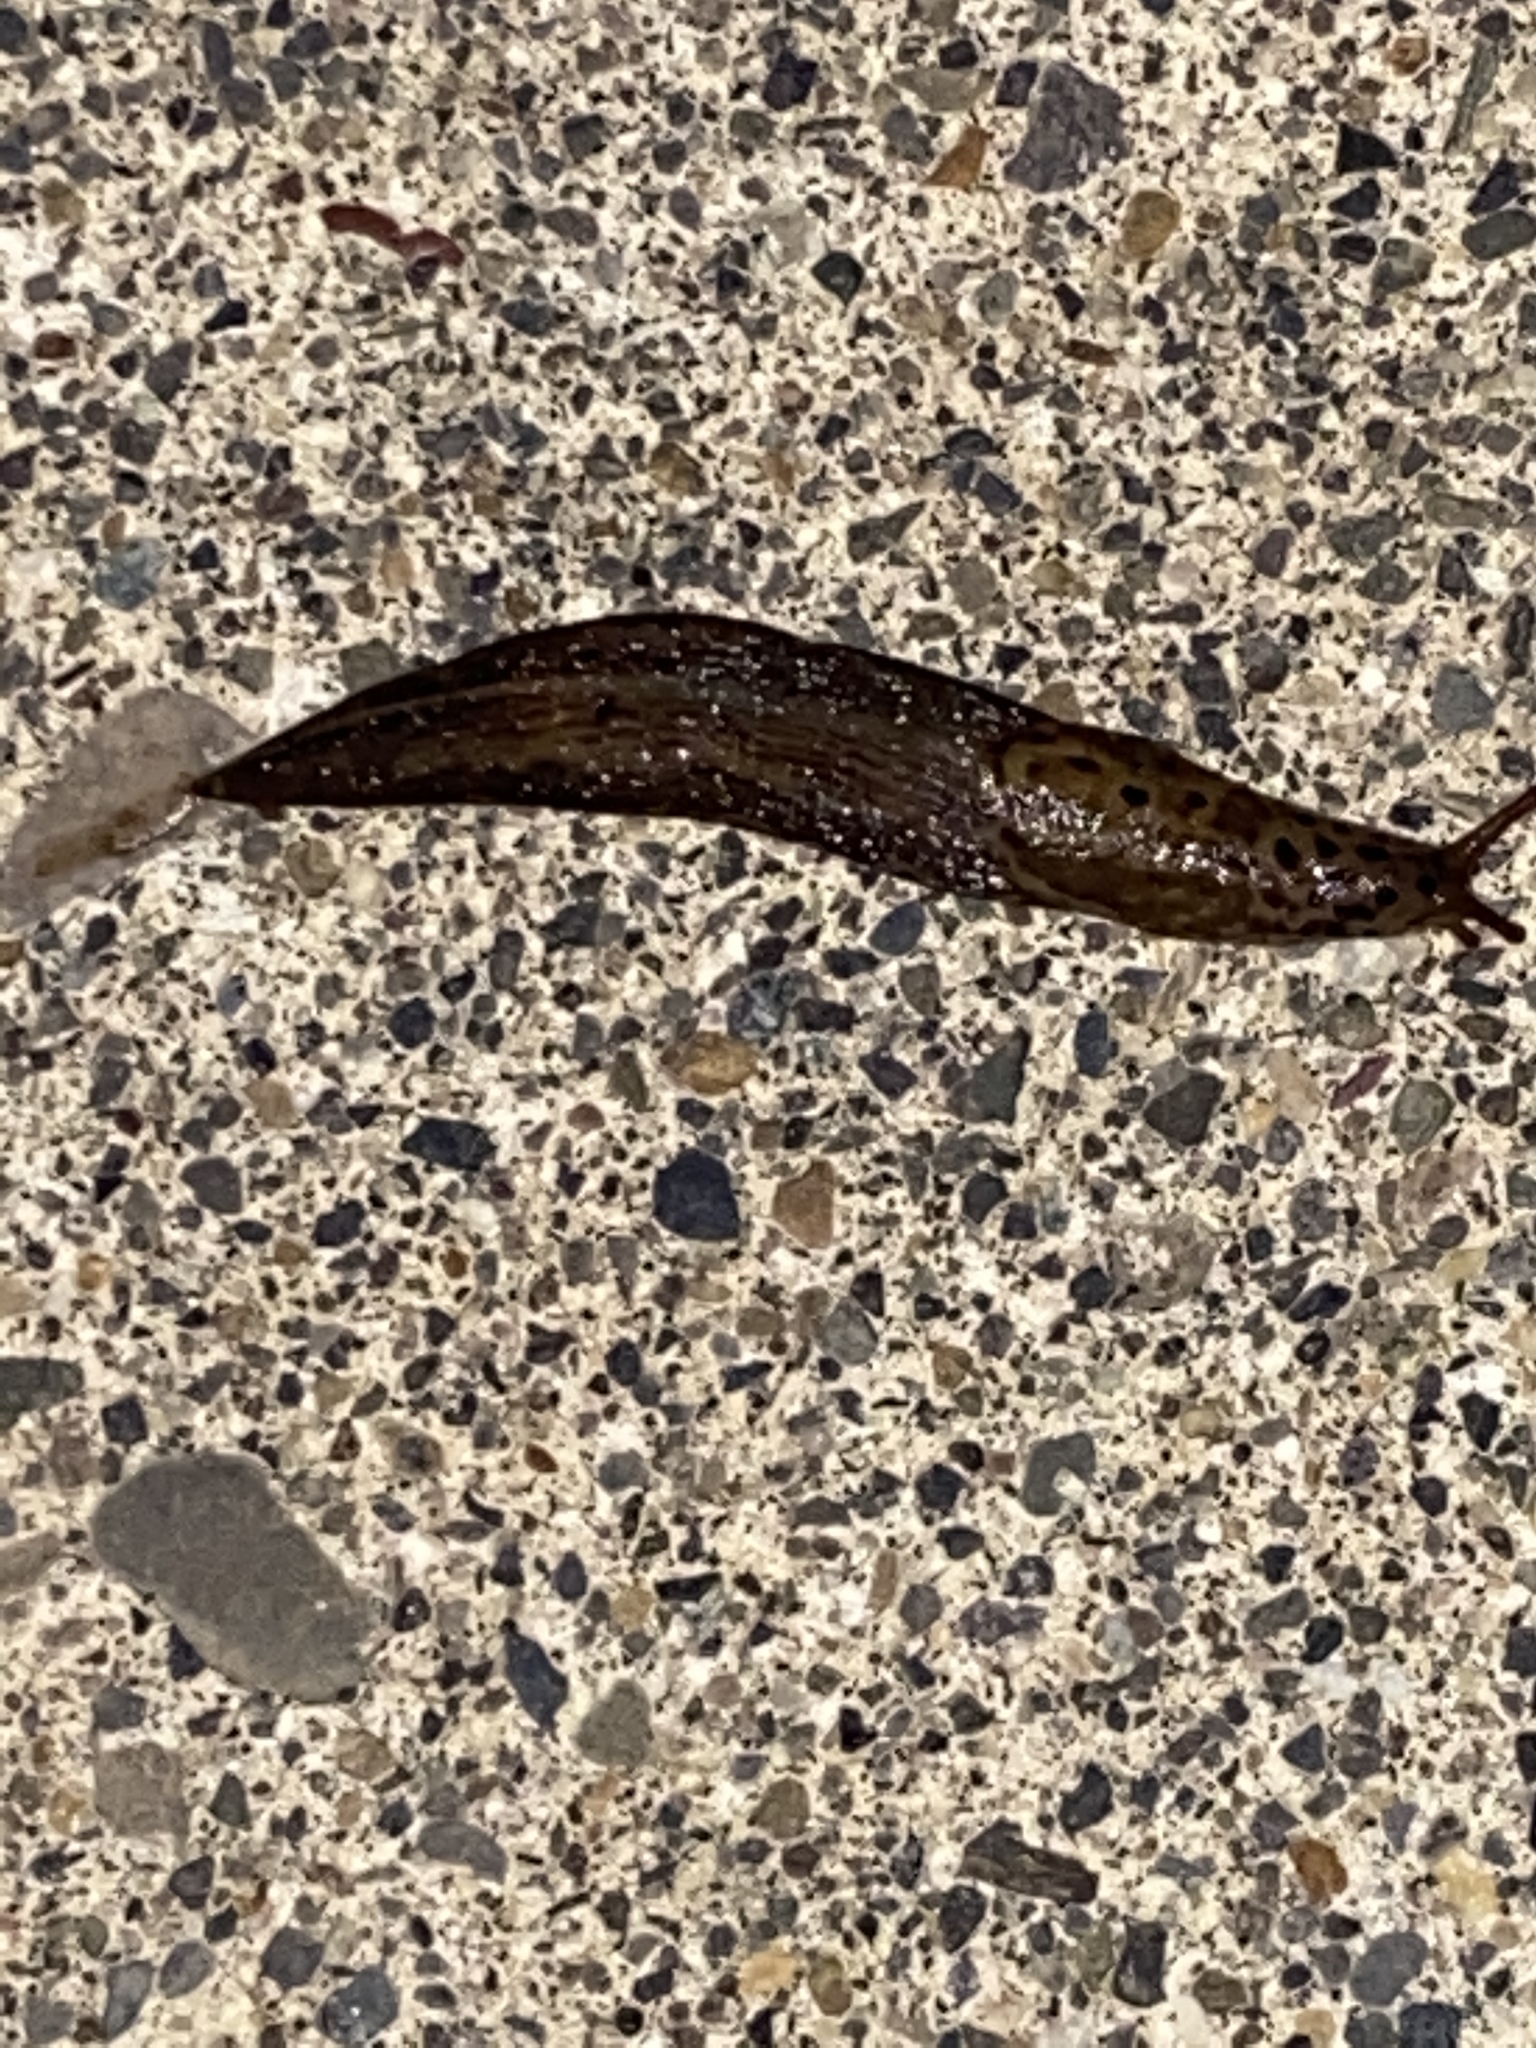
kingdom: Animalia
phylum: Mollusca
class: Gastropoda
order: Stylommatophora
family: Limacidae
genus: Limax
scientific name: Limax maximus
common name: Great grey slug
